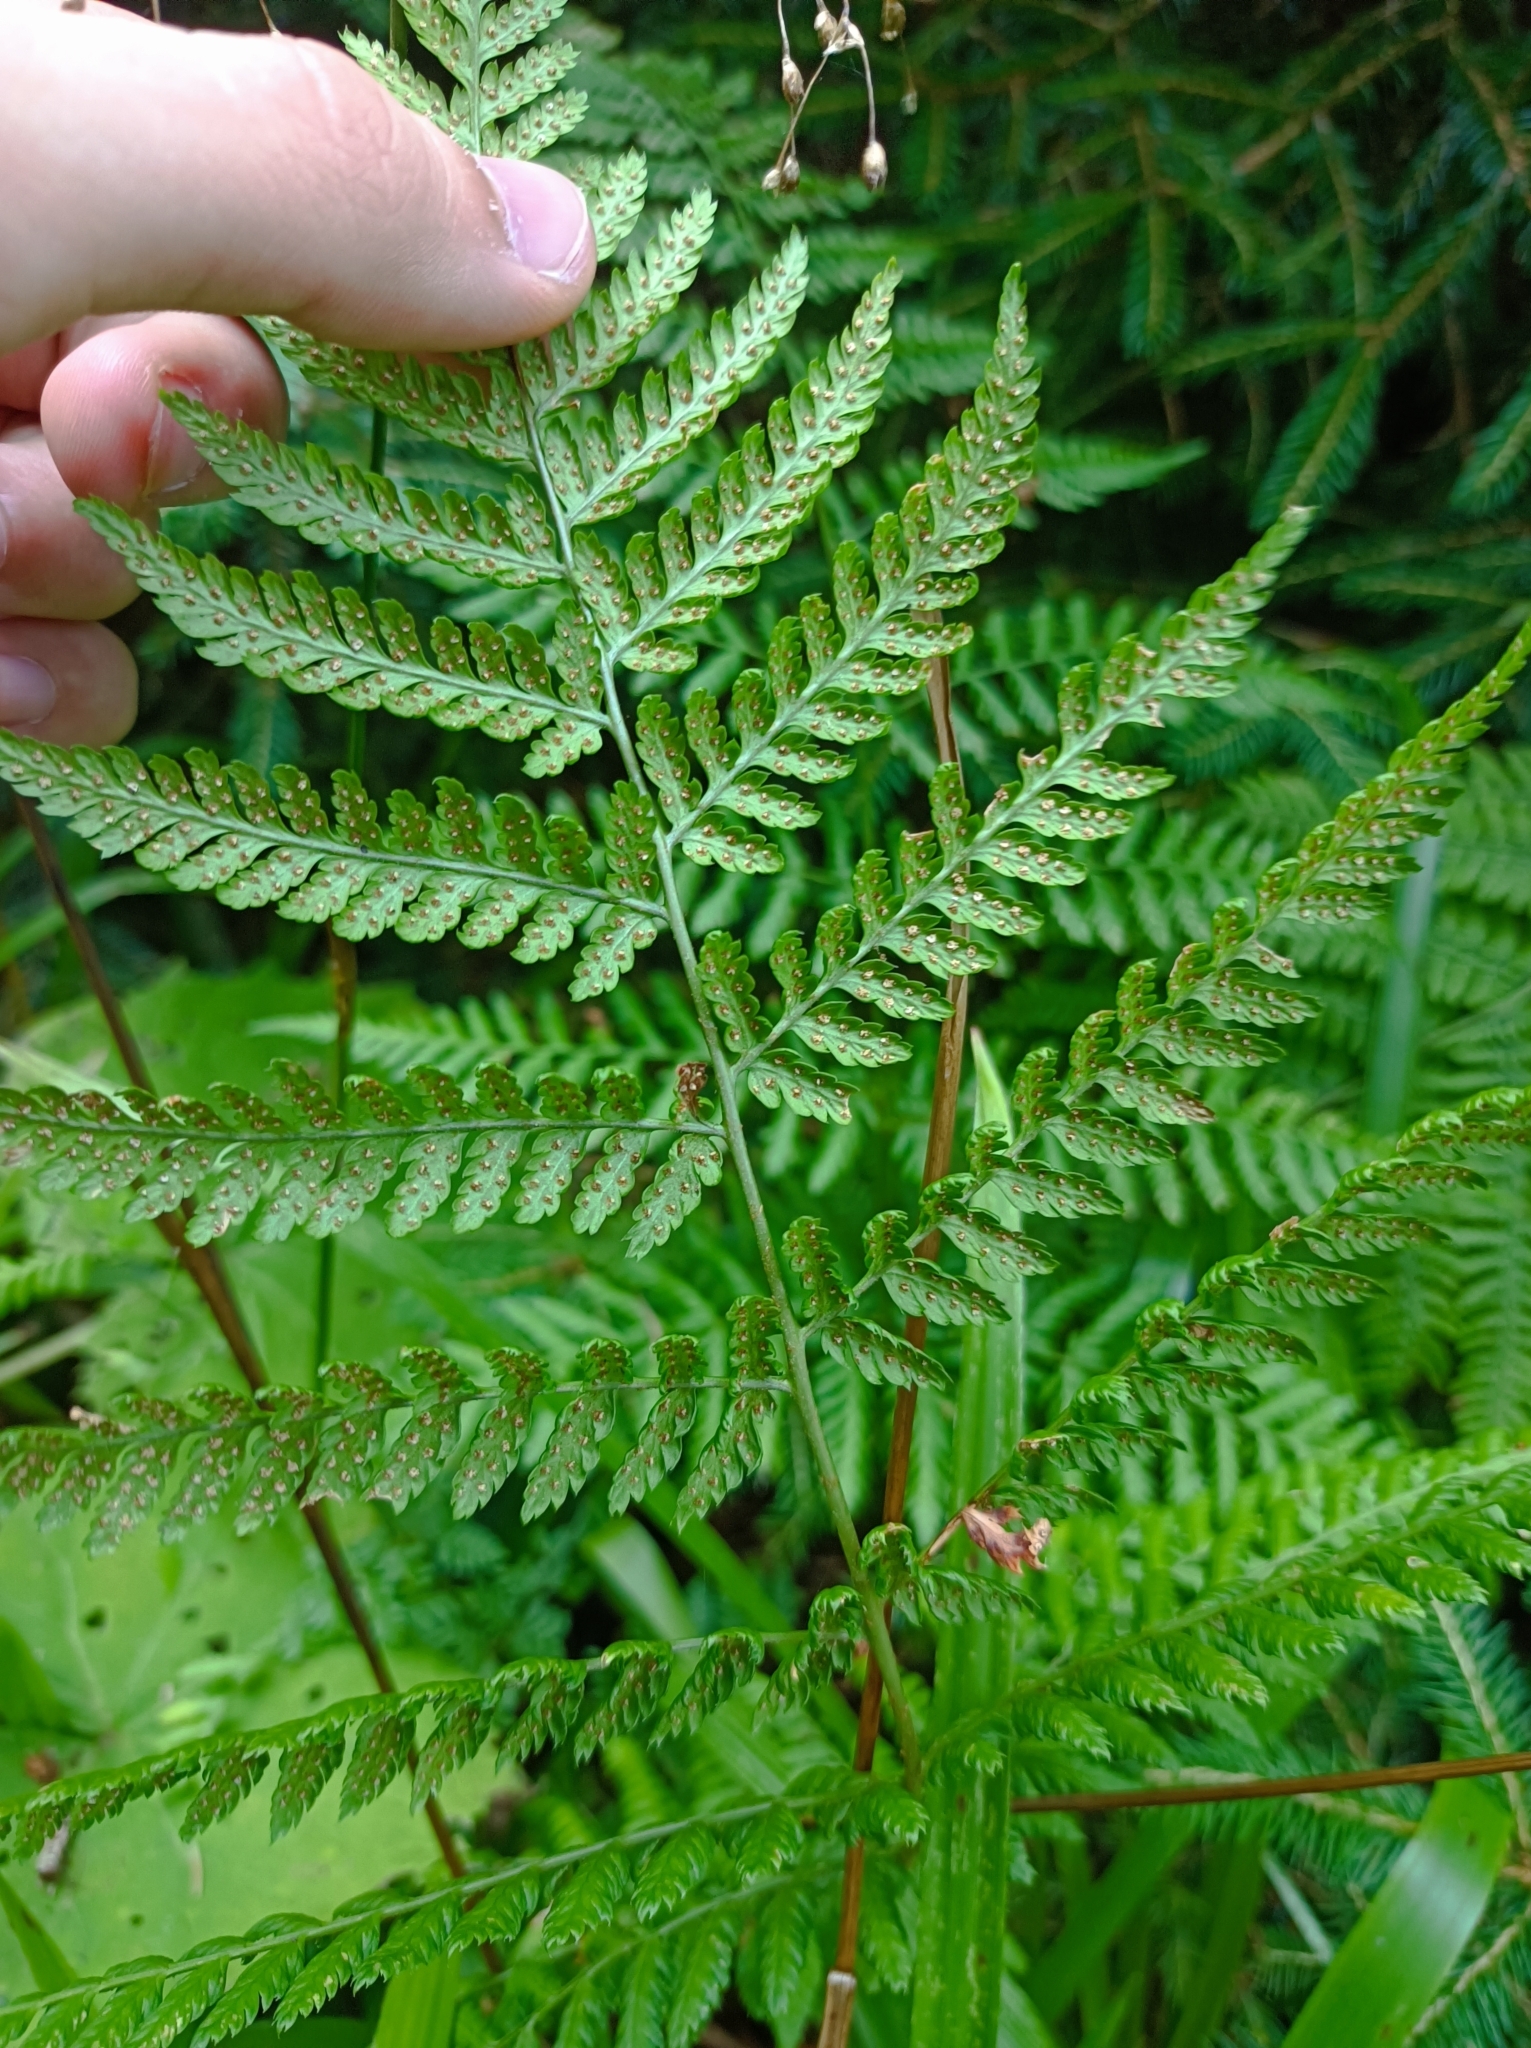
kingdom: Plantae
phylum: Tracheophyta
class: Polypodiopsida
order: Polypodiales
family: Dryopteridaceae
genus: Dryopteris
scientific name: Dryopteris dilatata
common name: Broad buckler-fern
